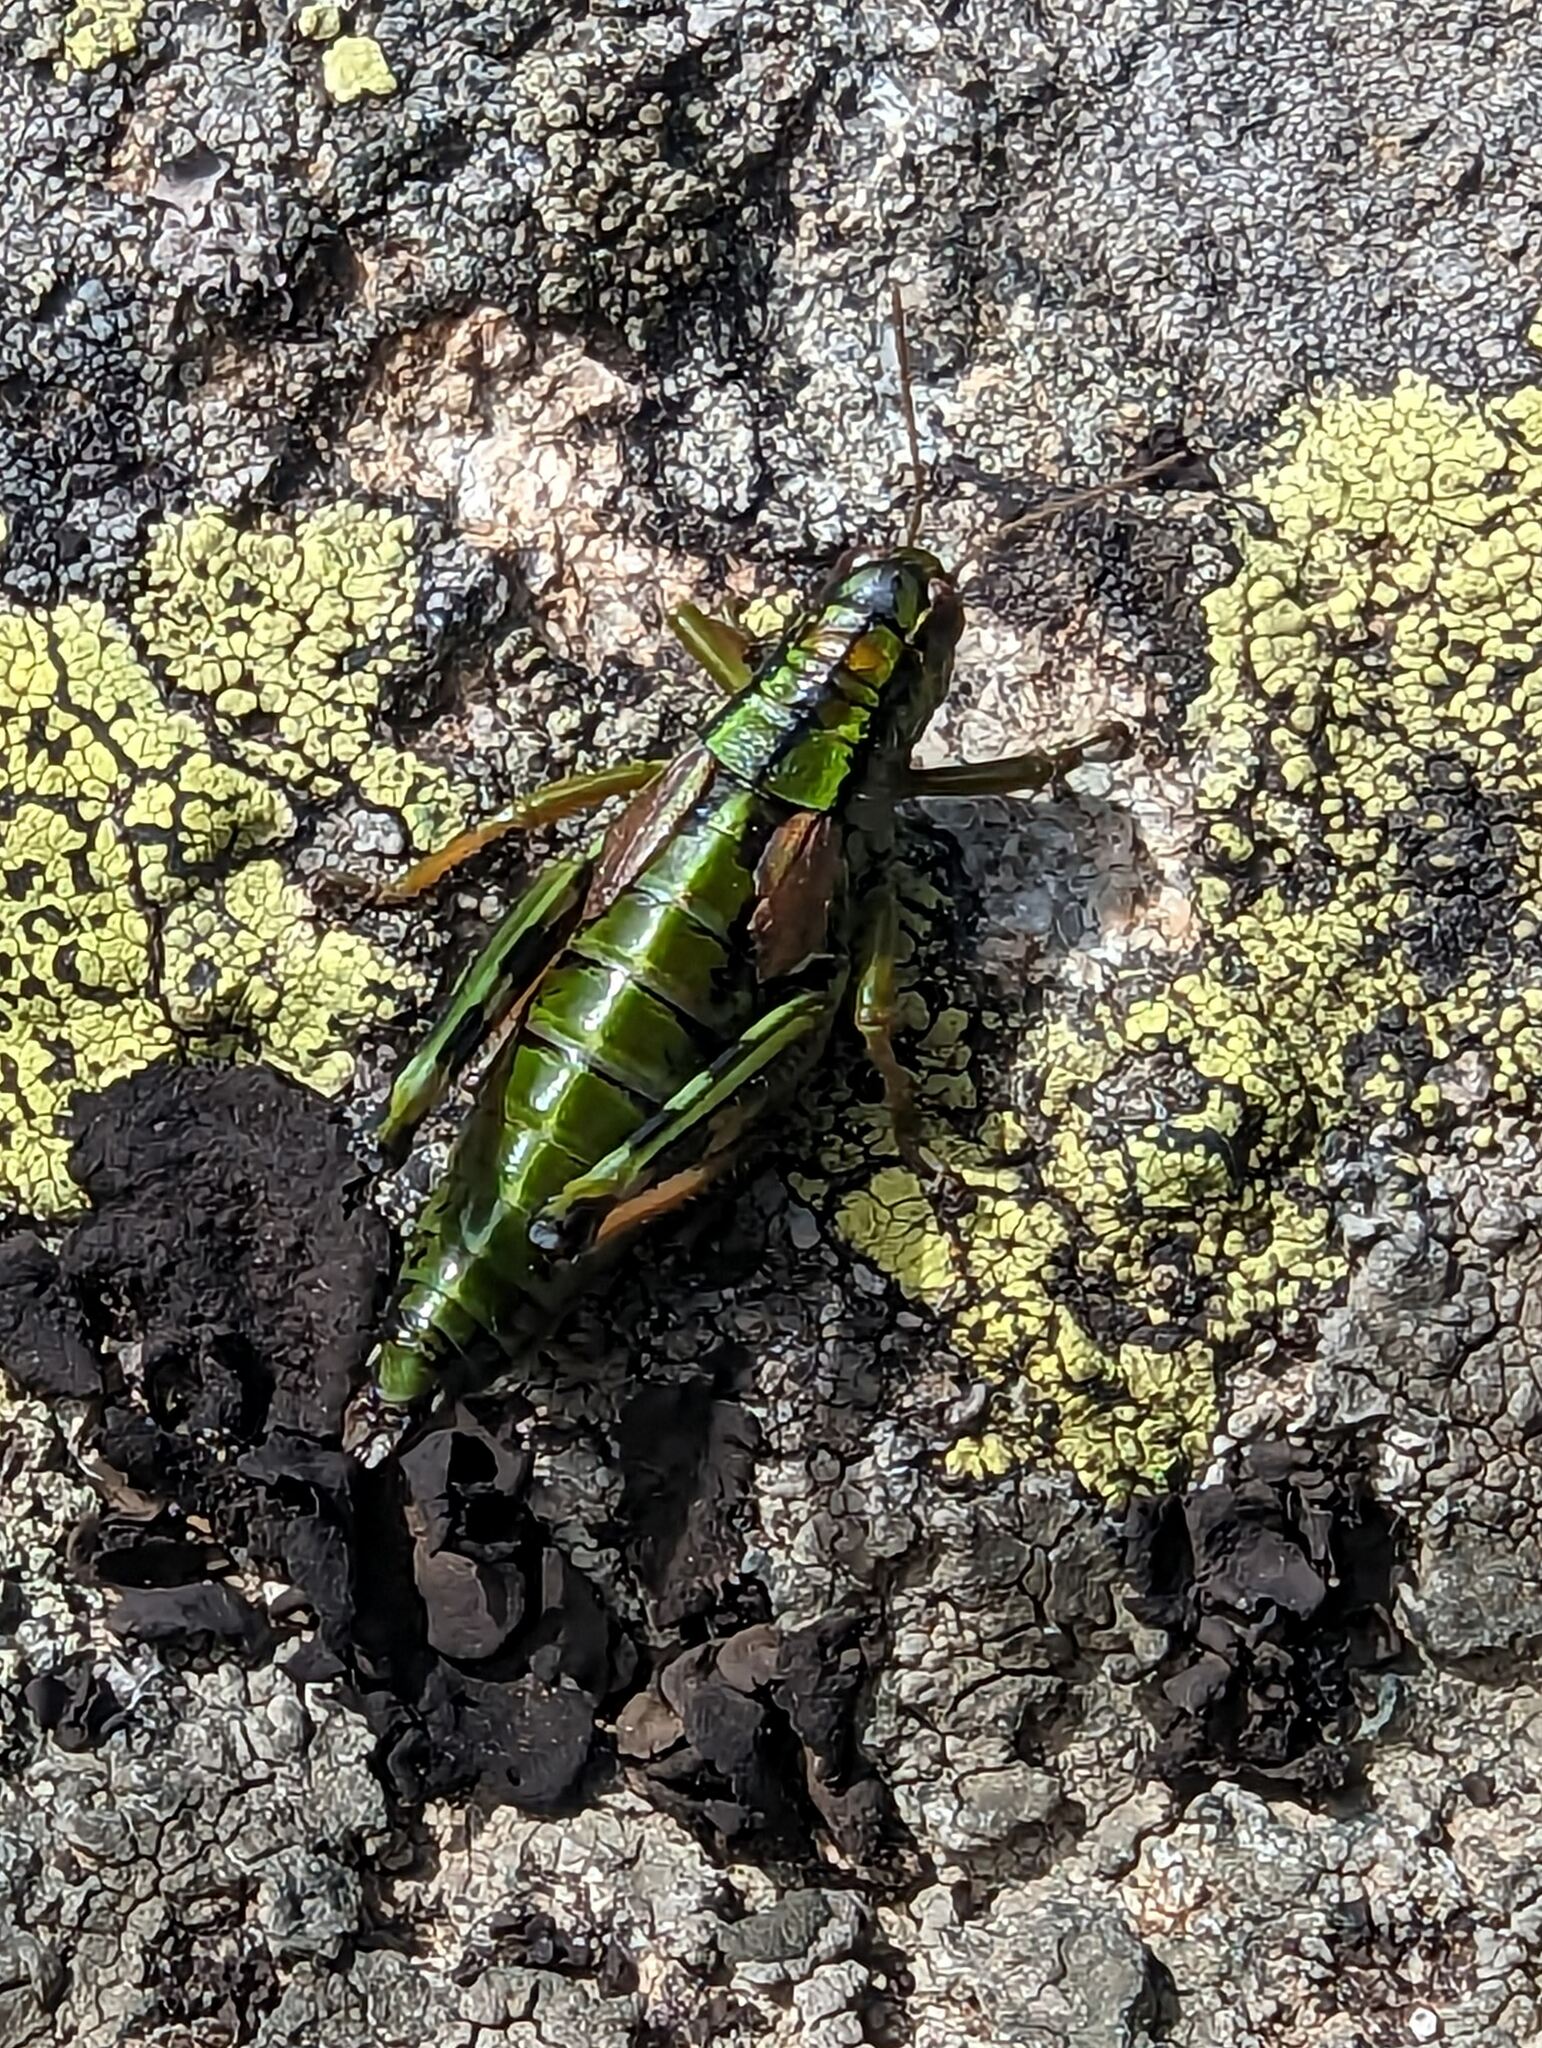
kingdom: Animalia
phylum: Arthropoda
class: Insecta
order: Orthoptera
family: Acrididae
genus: Miramella
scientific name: Miramella alpina
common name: Green mountain grasshopper
